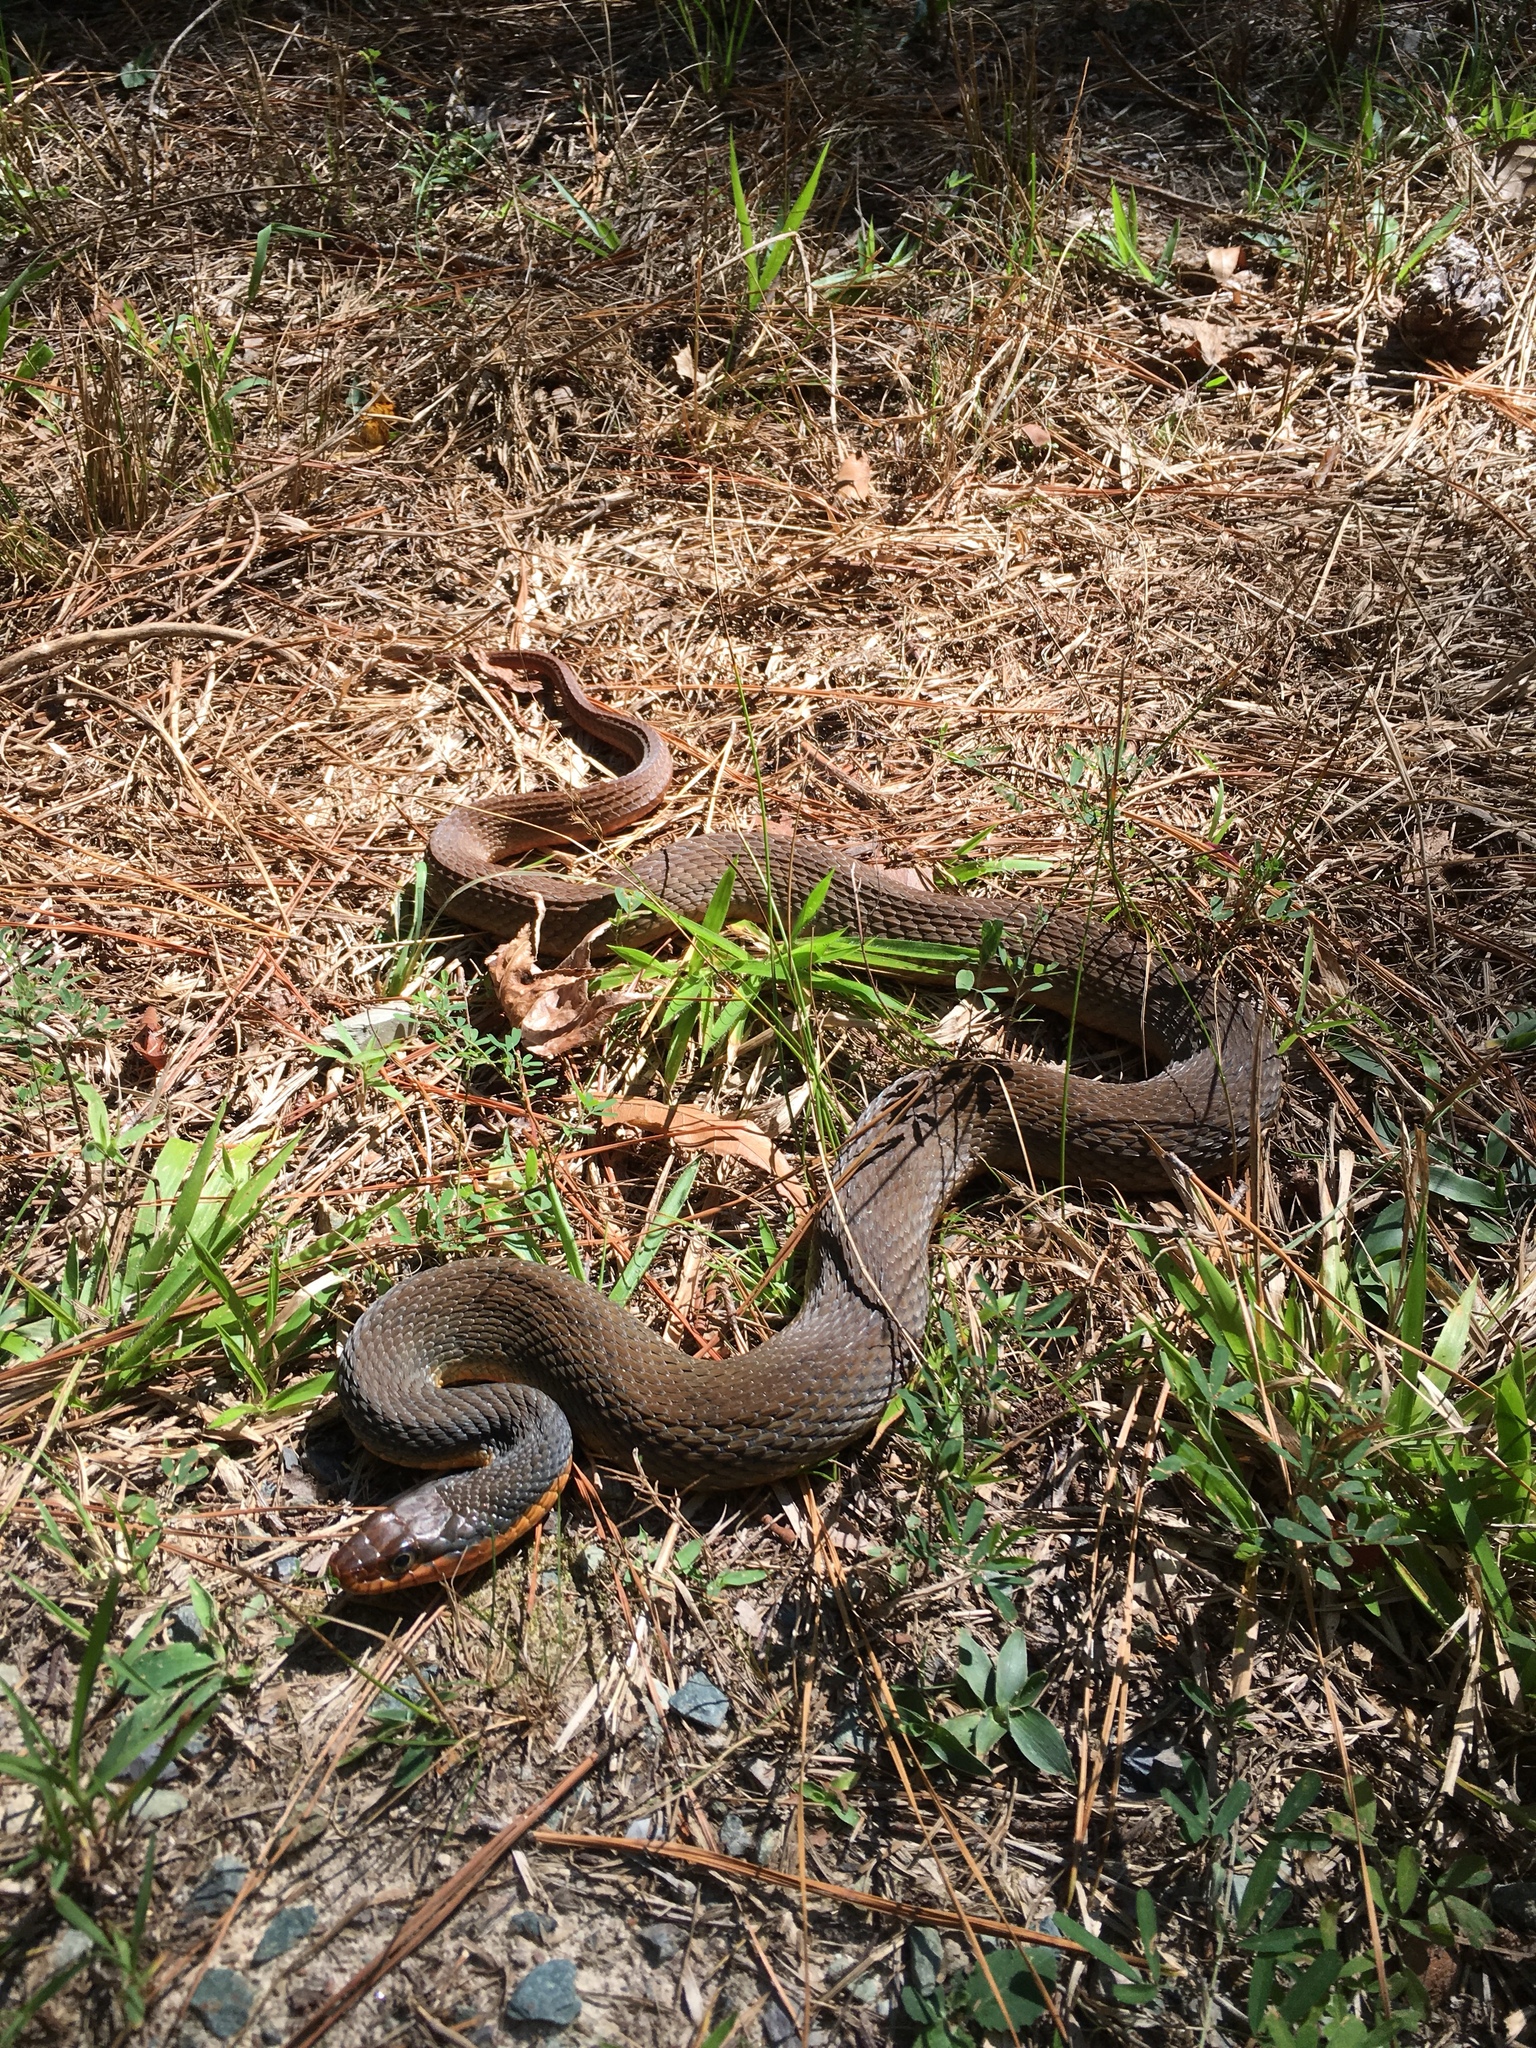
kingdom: Animalia
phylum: Chordata
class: Squamata
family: Colubridae
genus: Nerodia
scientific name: Nerodia erythrogaster
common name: Plainbelly water snake
